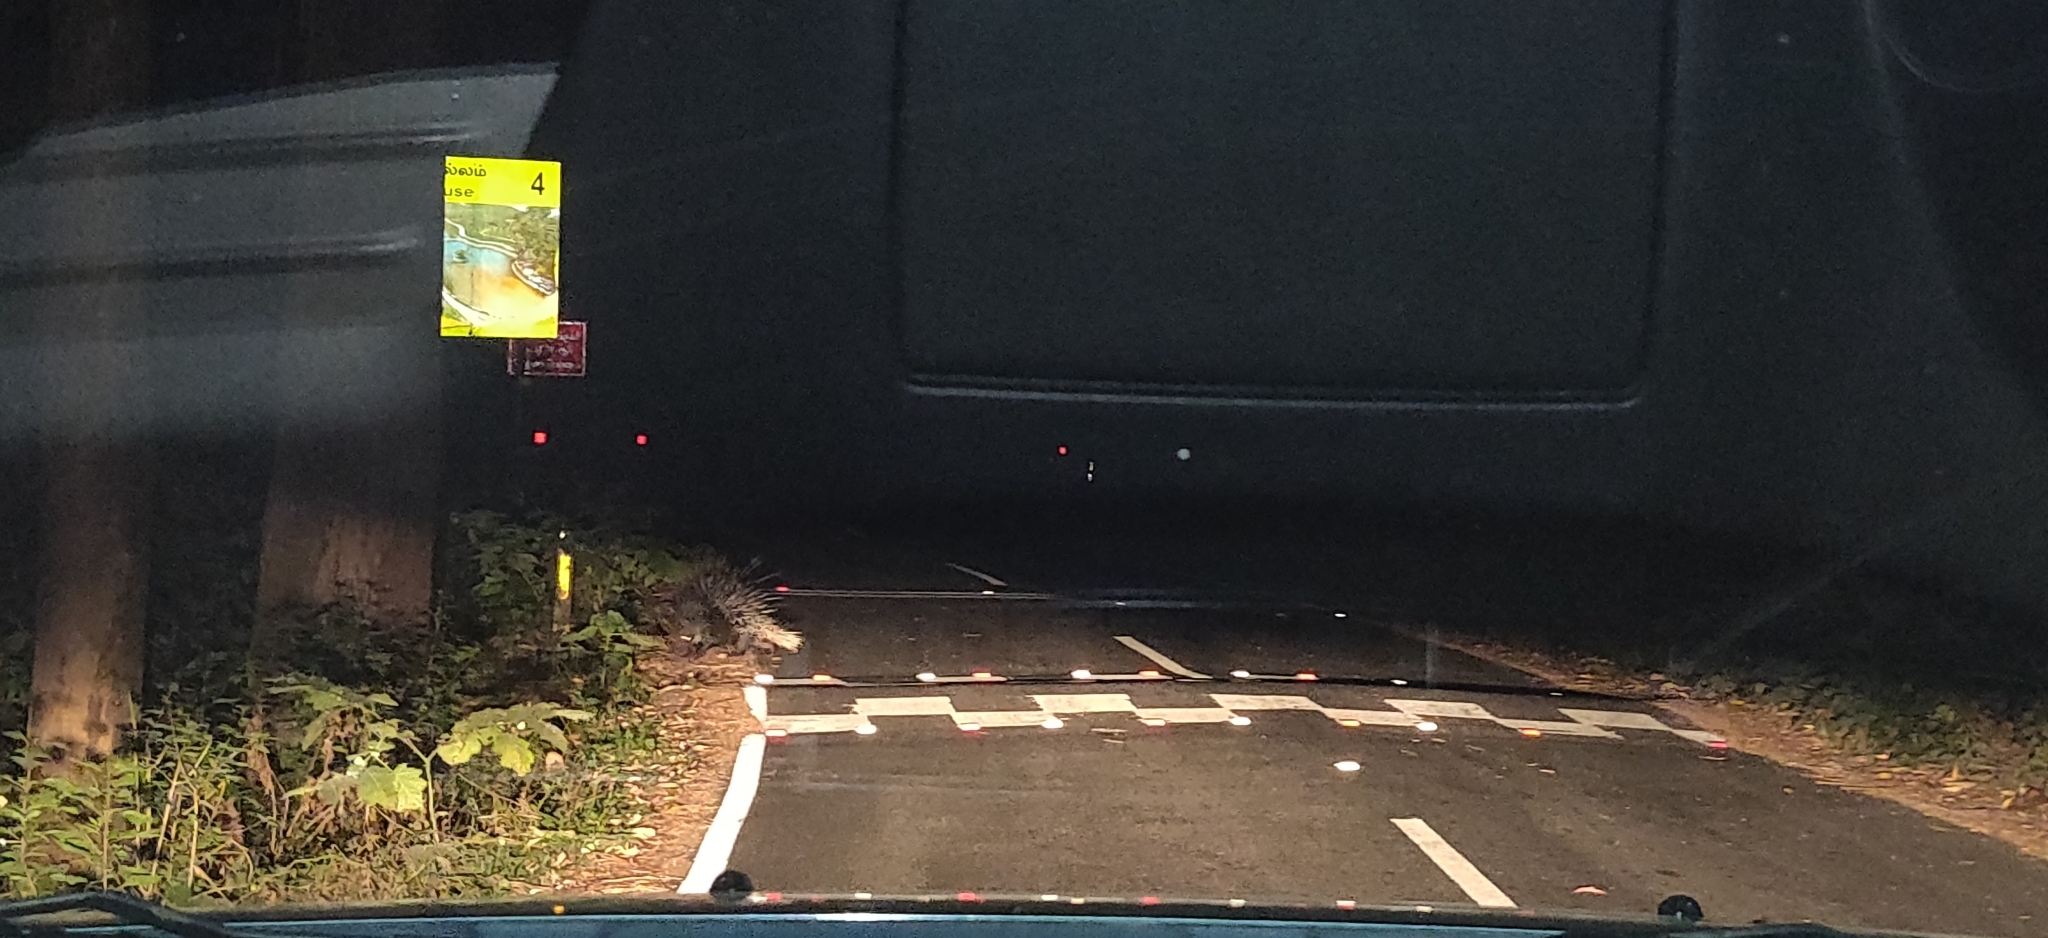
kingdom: Animalia
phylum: Chordata
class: Mammalia
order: Rodentia
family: Hystricidae
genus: Hystrix
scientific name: Hystrix indica
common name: Indian crested porcupine
